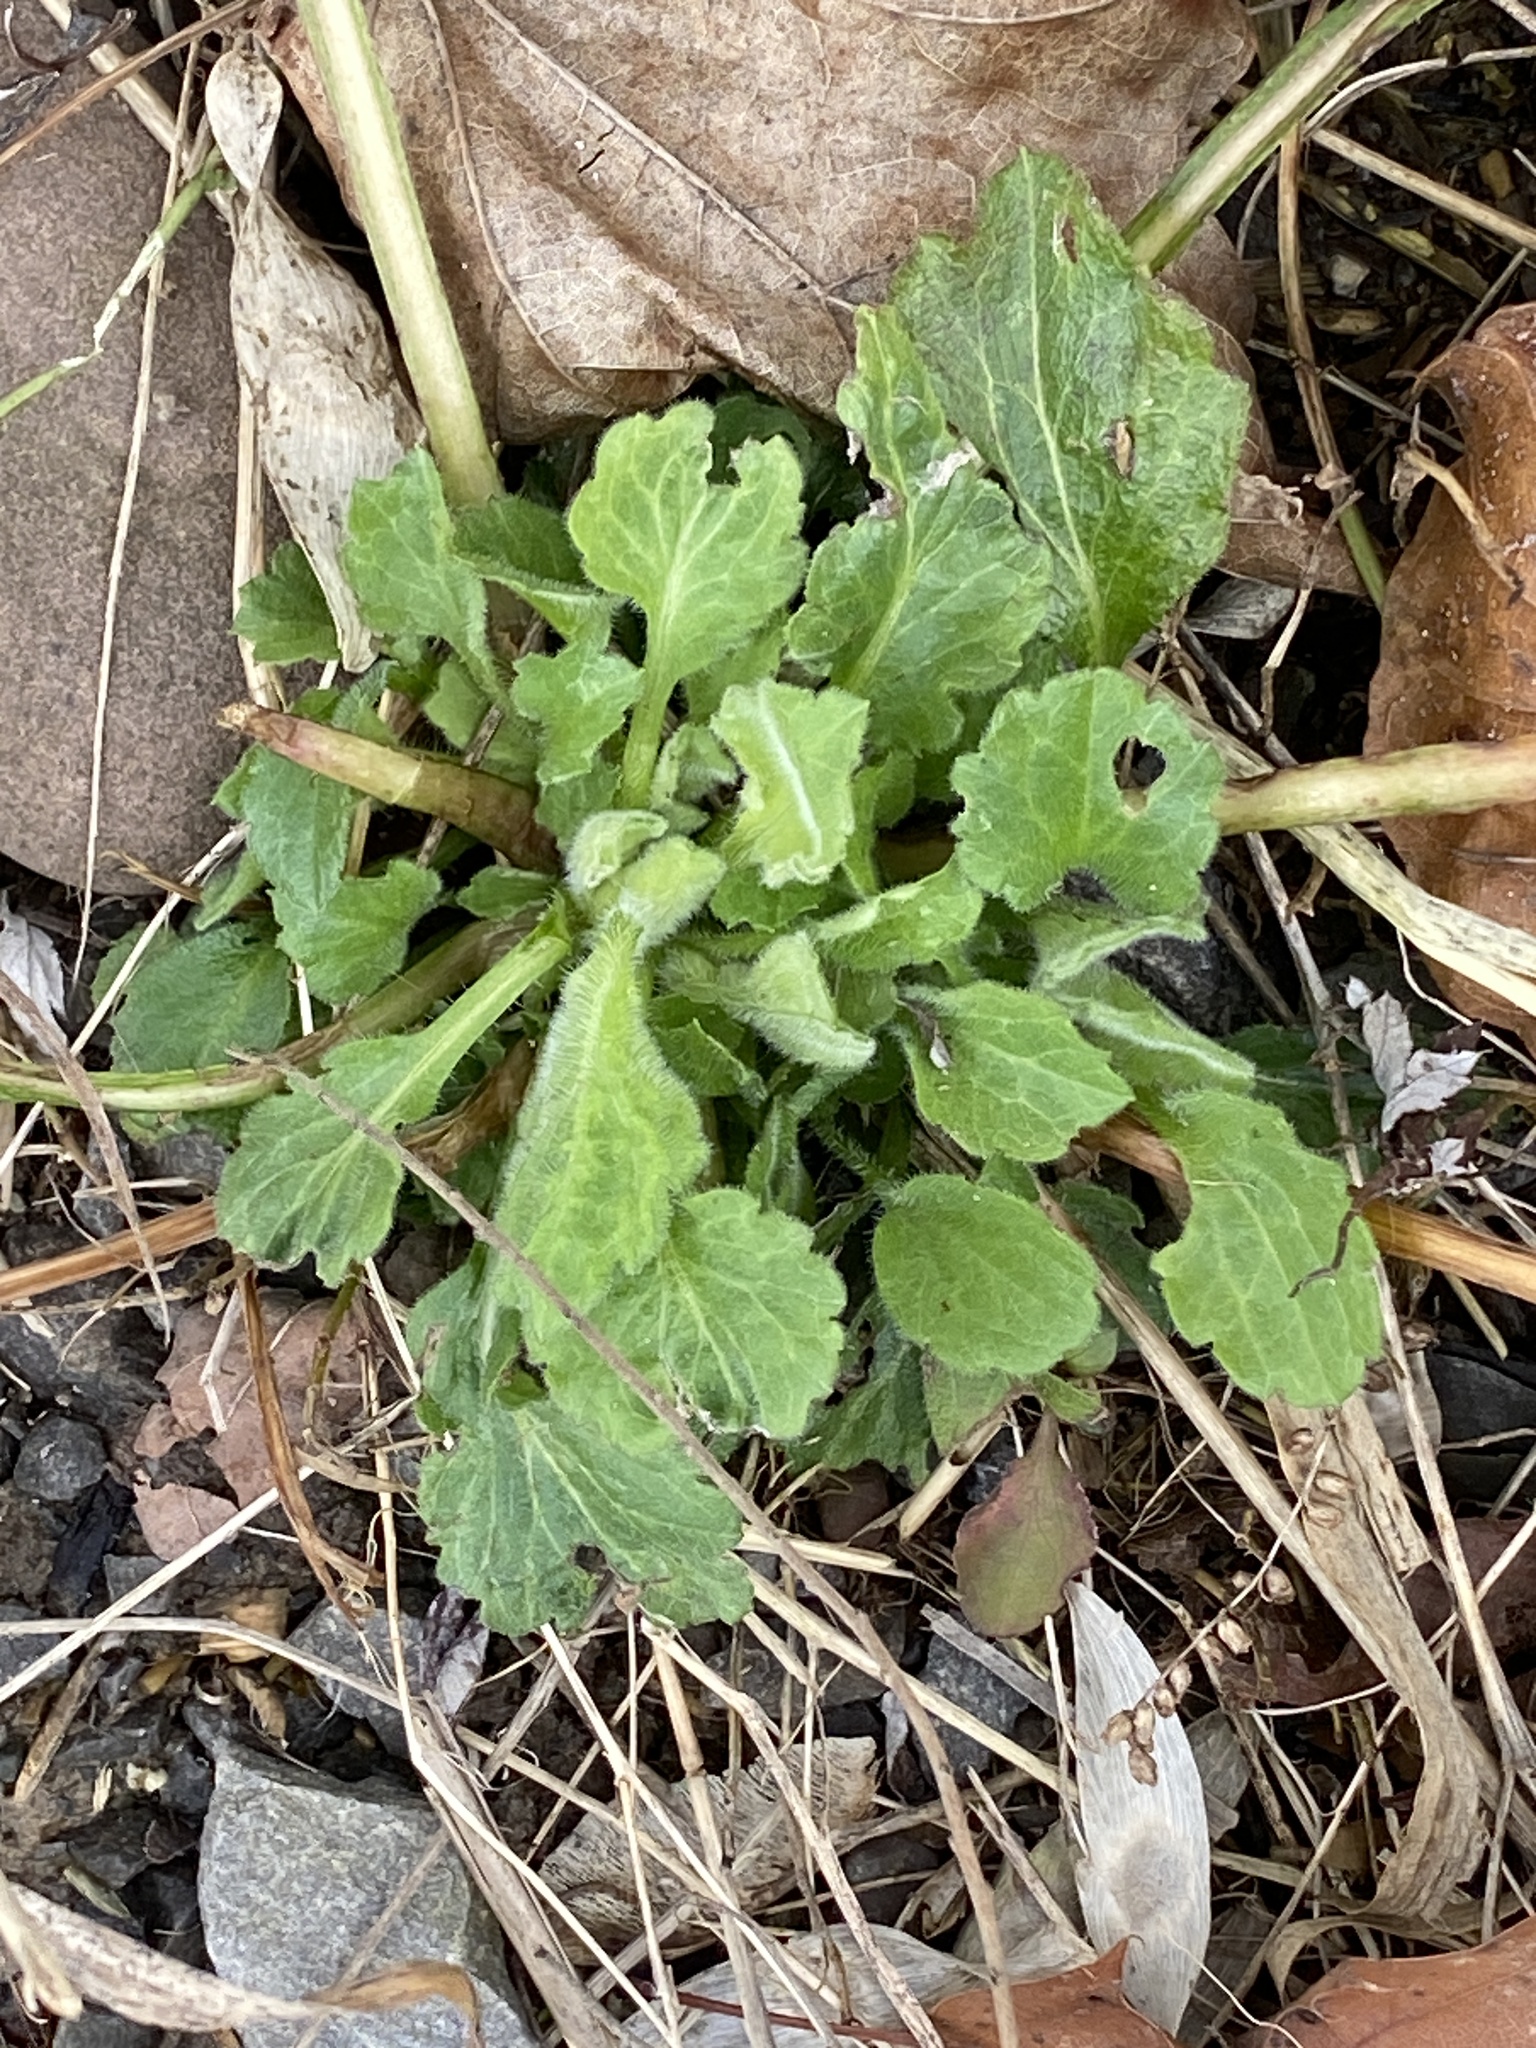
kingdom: Plantae
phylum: Tracheophyta
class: Magnoliopsida
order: Asterales
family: Asteraceae
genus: Erigeron
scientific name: Erigeron annuus
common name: Tall fleabane
